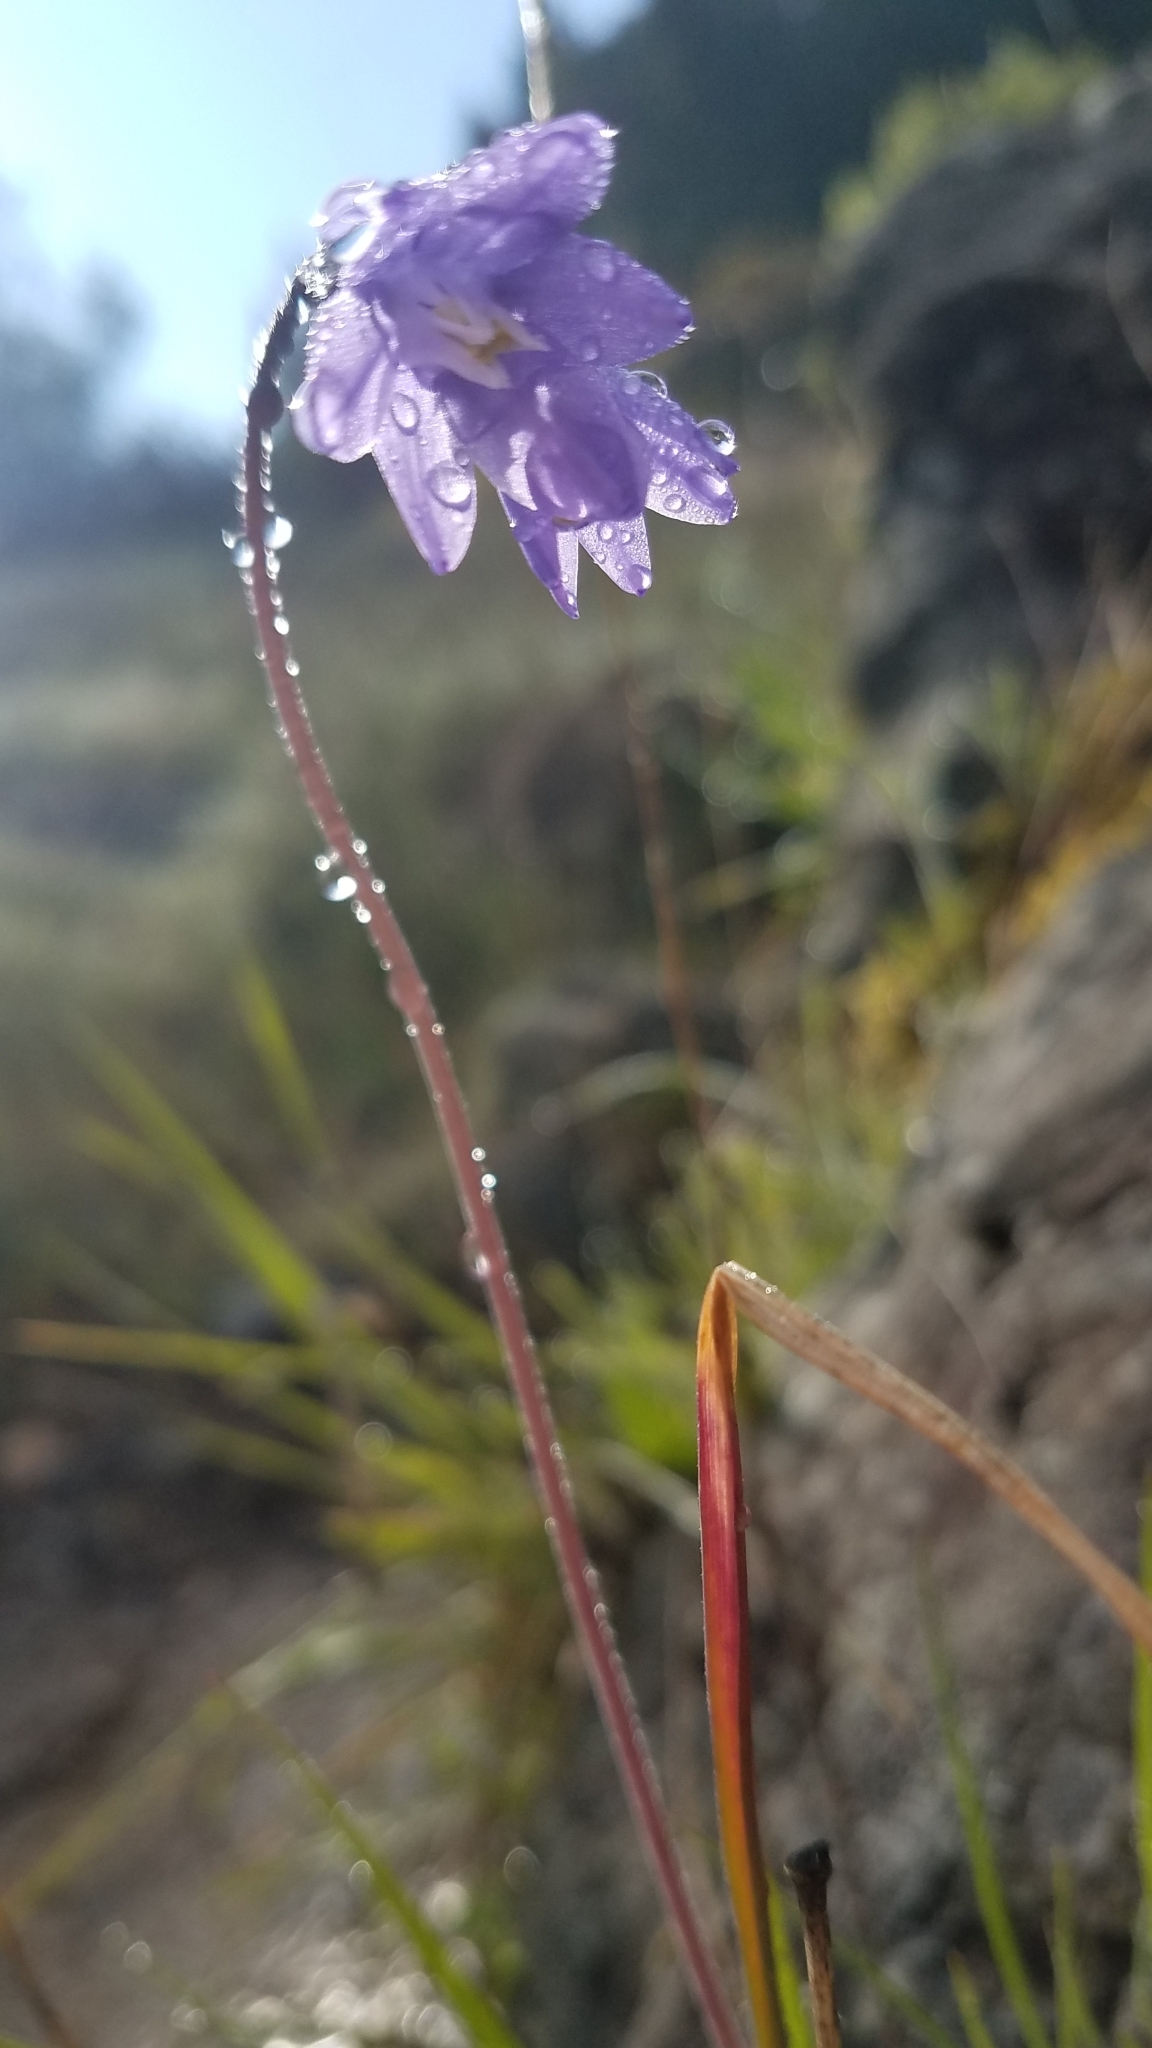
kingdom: Plantae
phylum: Tracheophyta
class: Liliopsida
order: Asparagales
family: Asparagaceae
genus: Dipterostemon
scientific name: Dipterostemon capitatus
